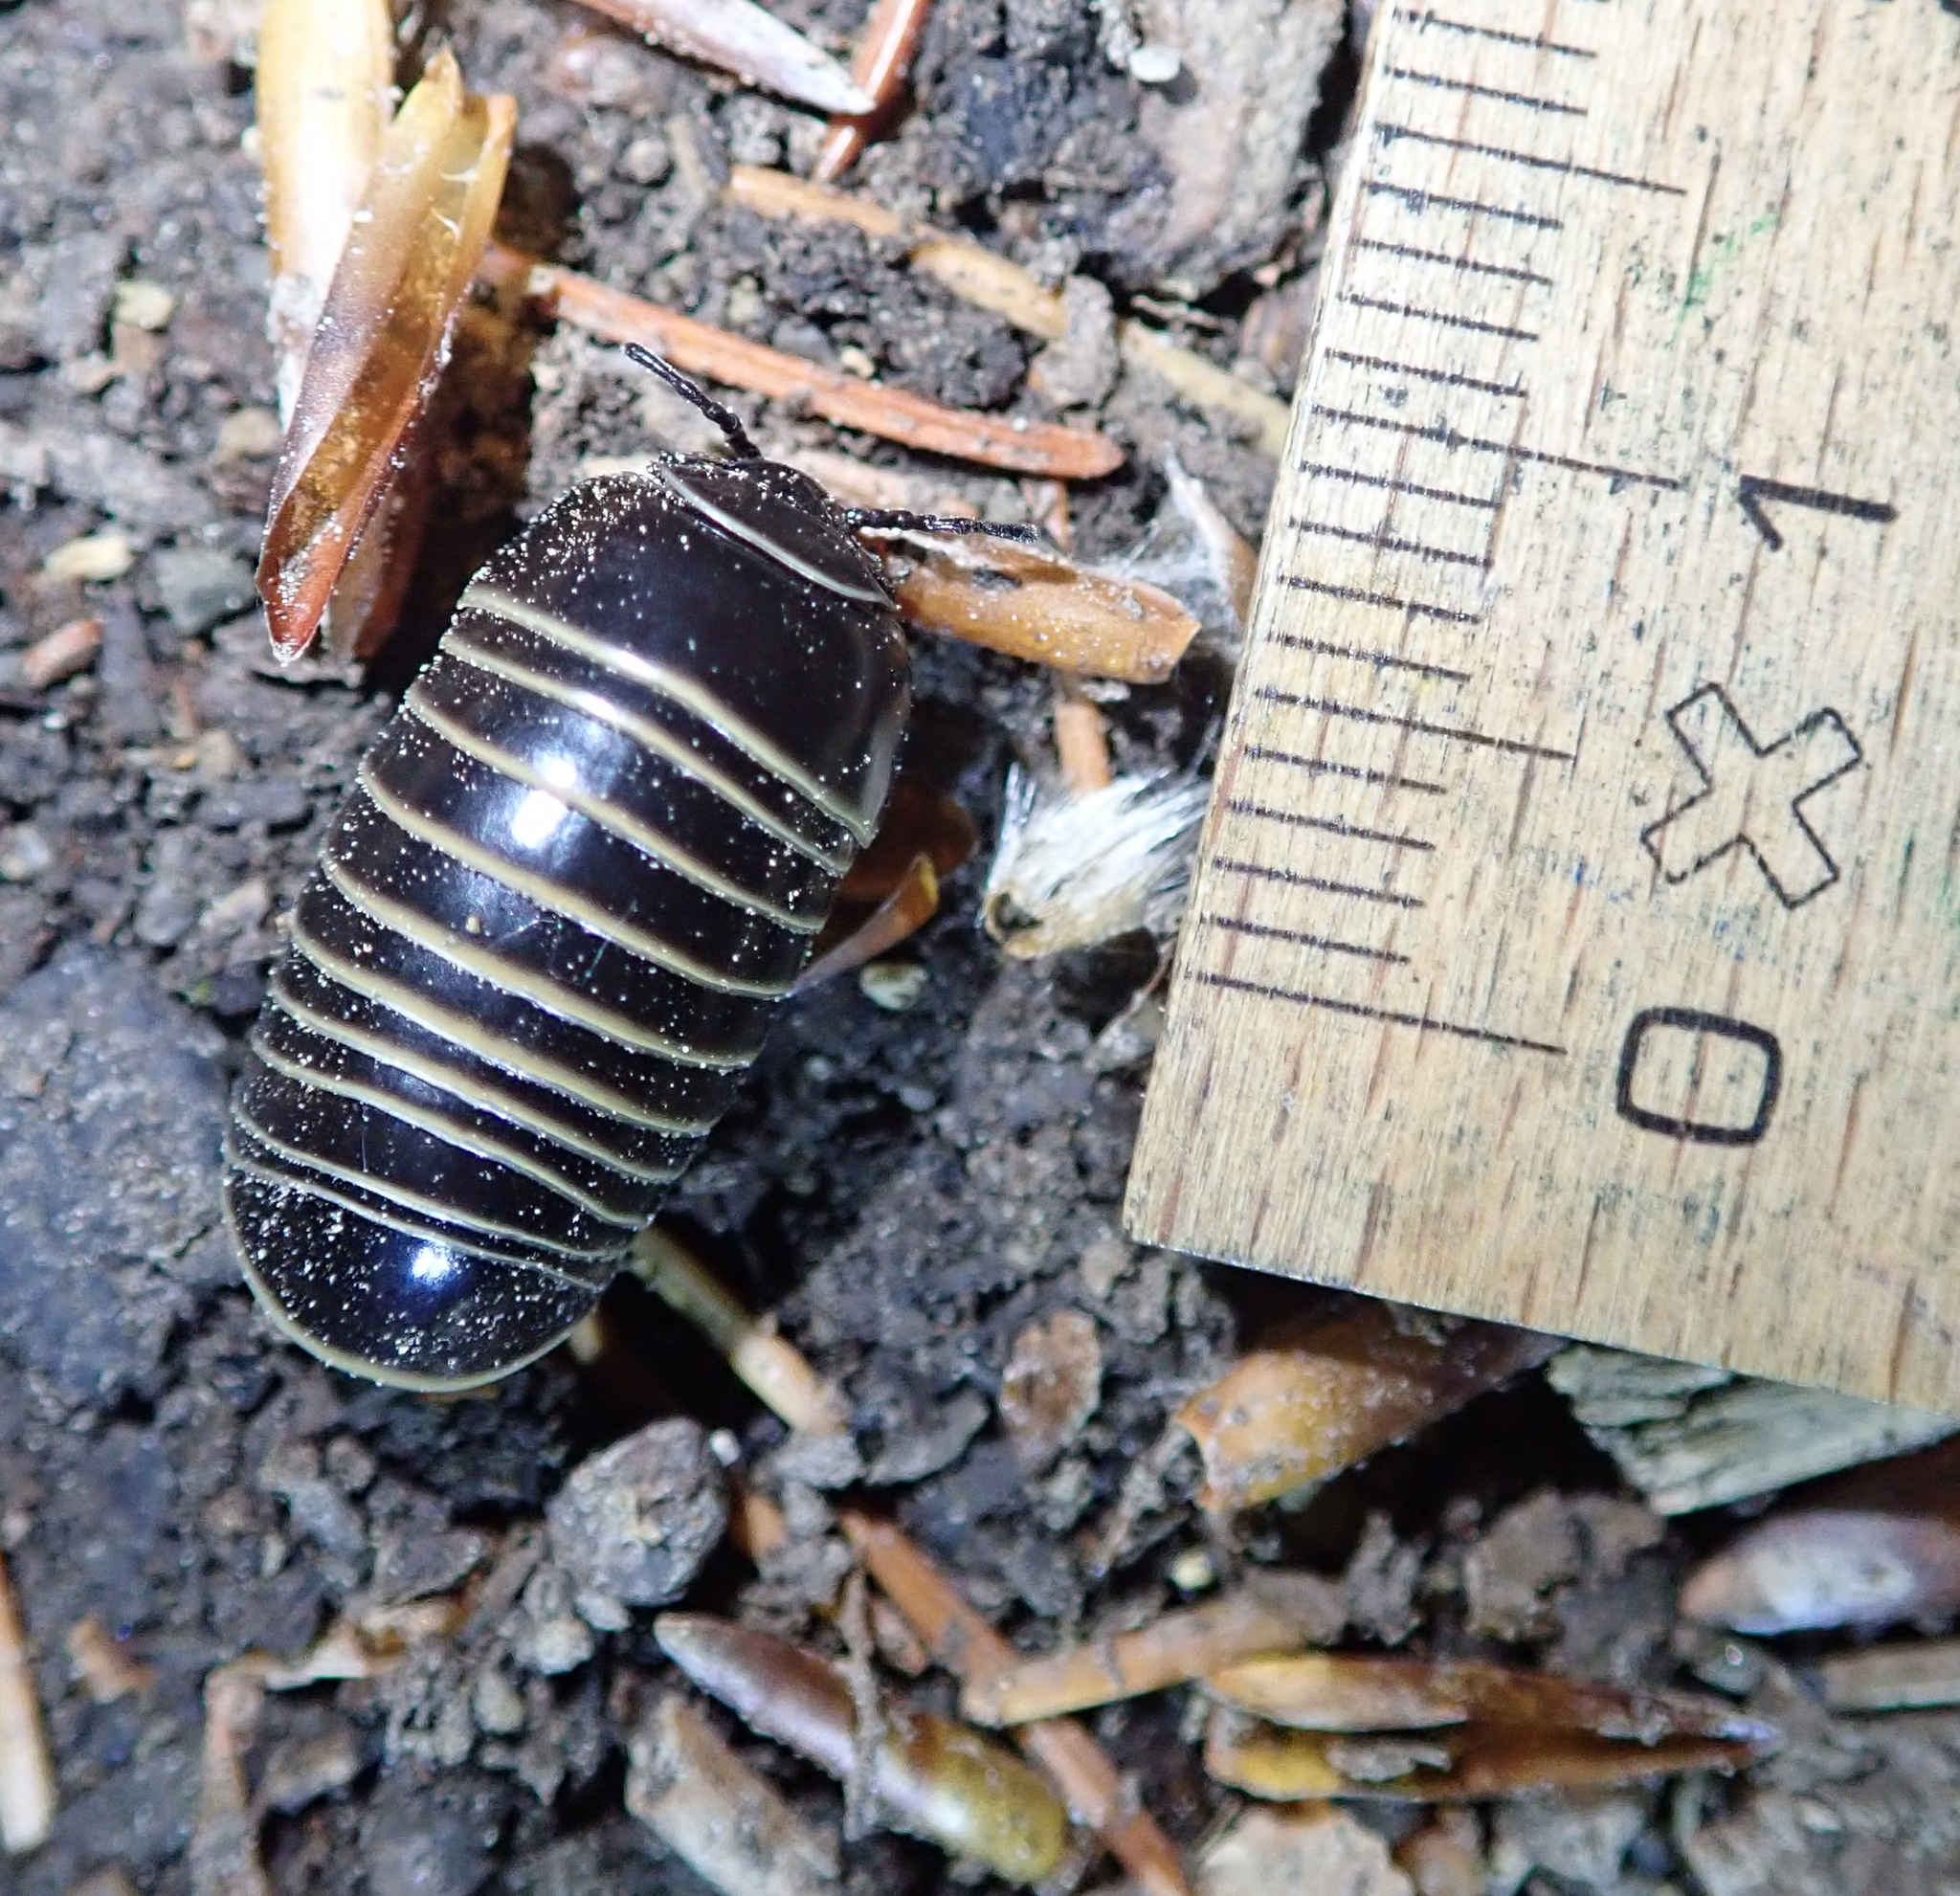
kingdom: Animalia
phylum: Arthropoda
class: Diplopoda
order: Glomerida
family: Glomeridae
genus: Glomeris
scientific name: Glomeris marginata
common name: Bordered pill millipede
